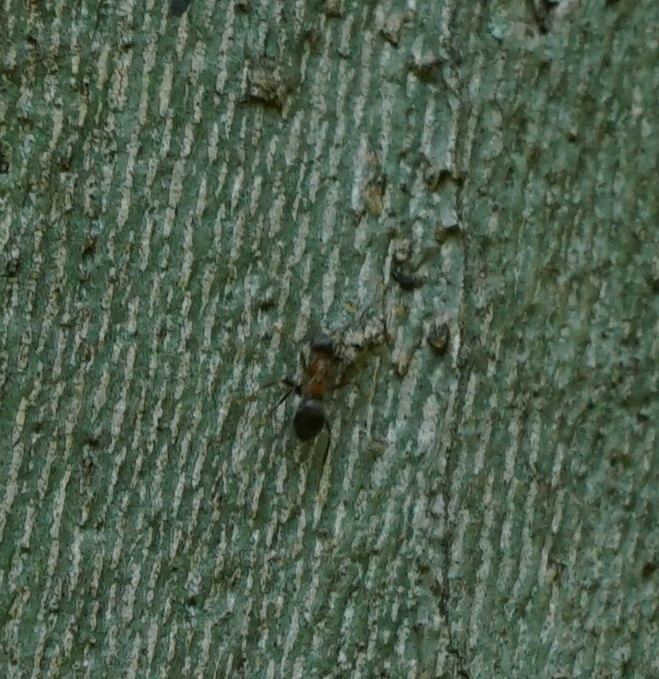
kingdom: Animalia
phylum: Arthropoda
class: Insecta
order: Hymenoptera
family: Formicidae
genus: Lasius
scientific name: Lasius emarginatus
